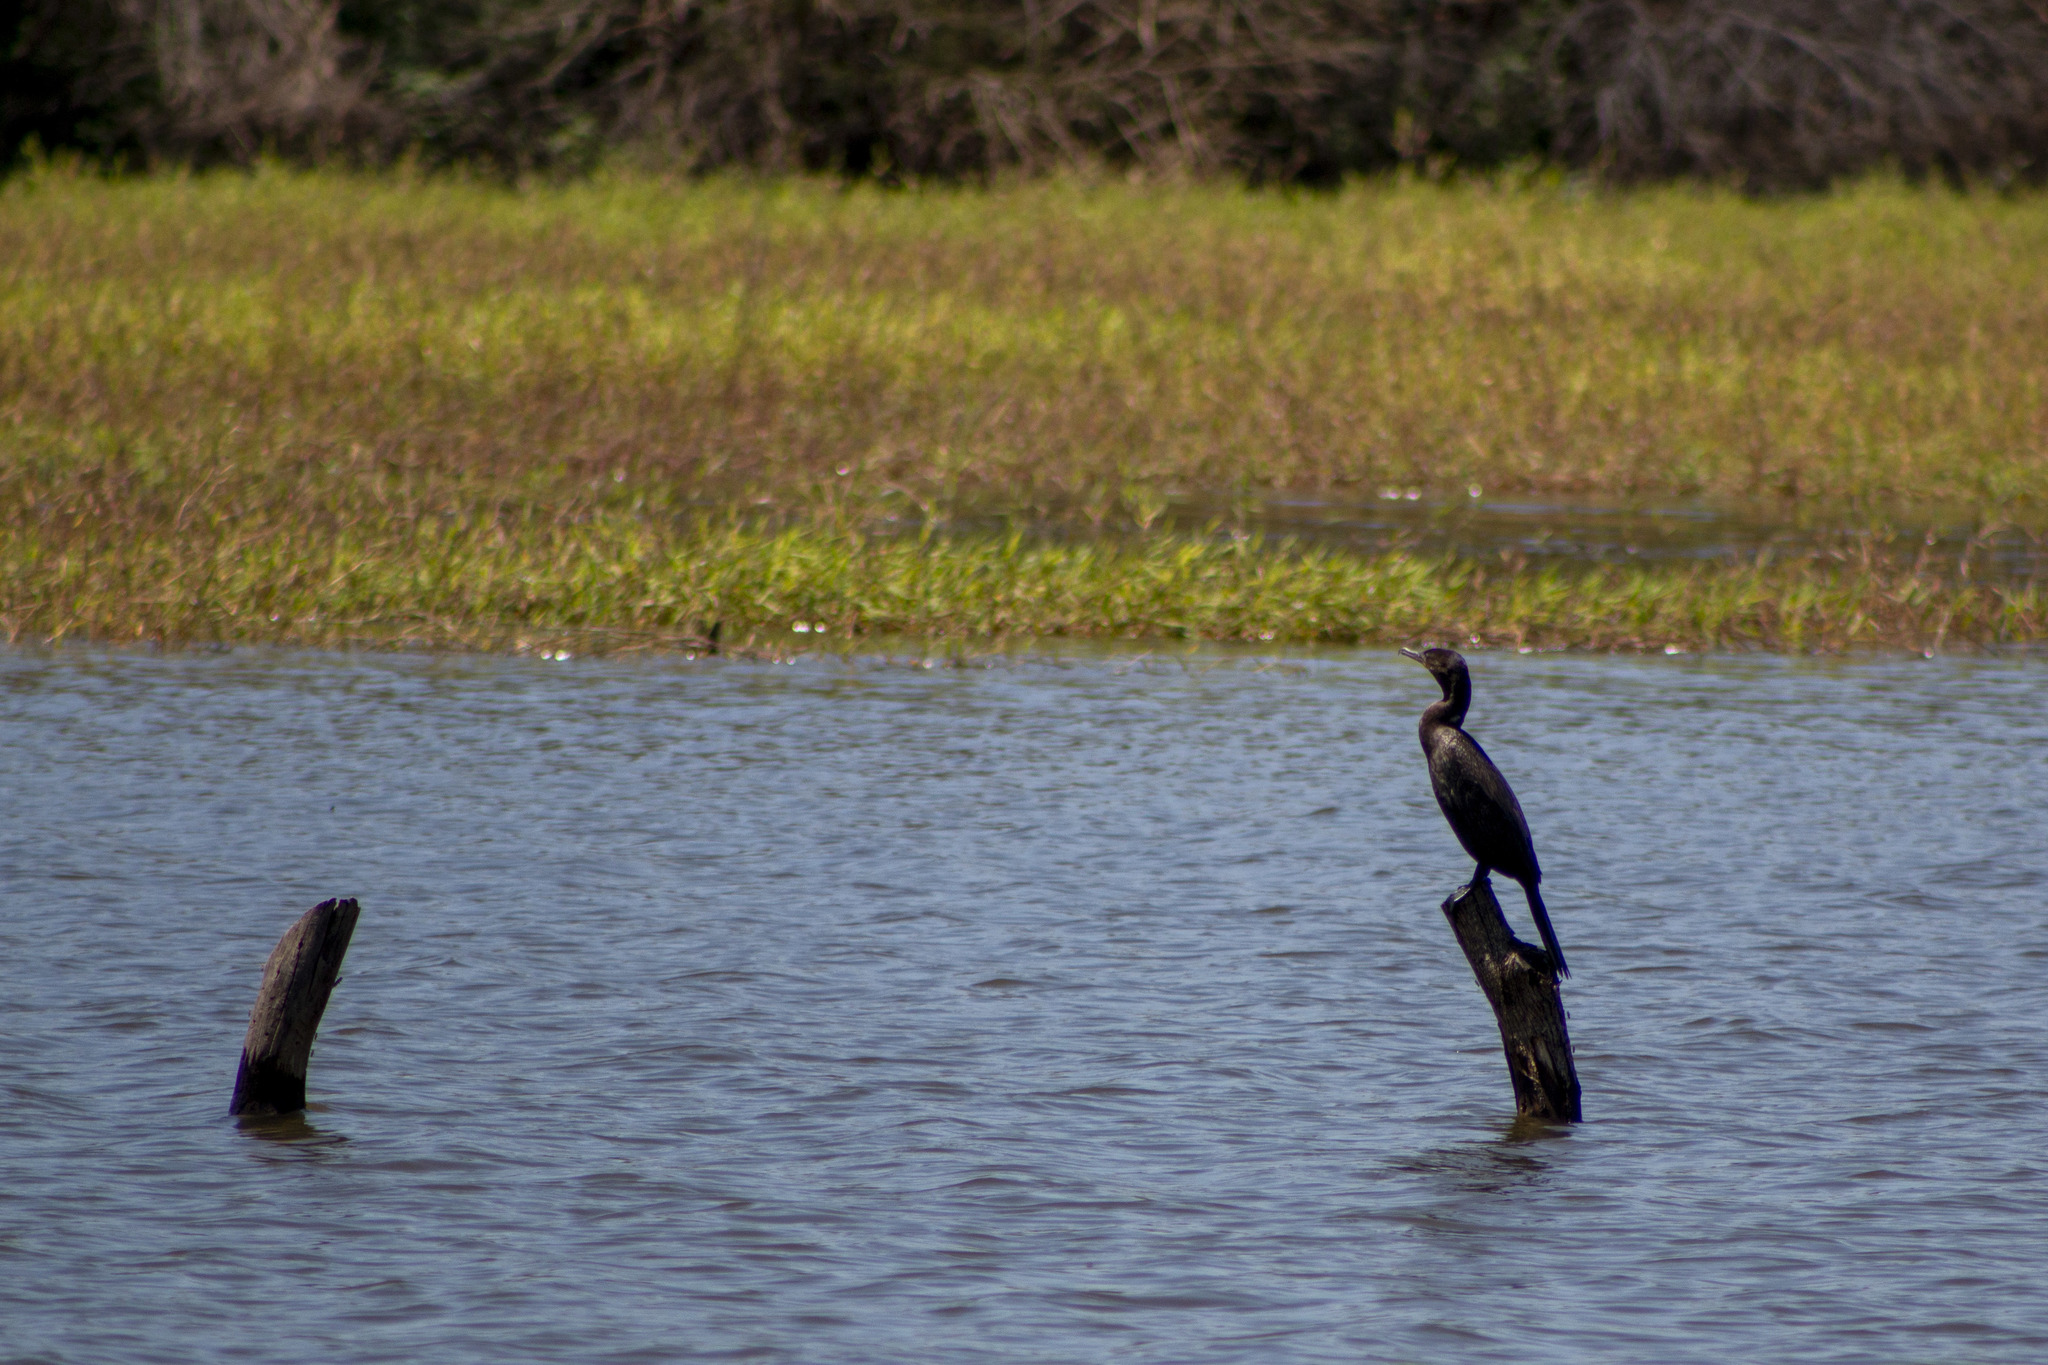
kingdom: Animalia
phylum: Chordata
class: Aves
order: Suliformes
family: Phalacrocoracidae
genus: Phalacrocorax
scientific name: Phalacrocorax brasilianus
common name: Neotropic cormorant
